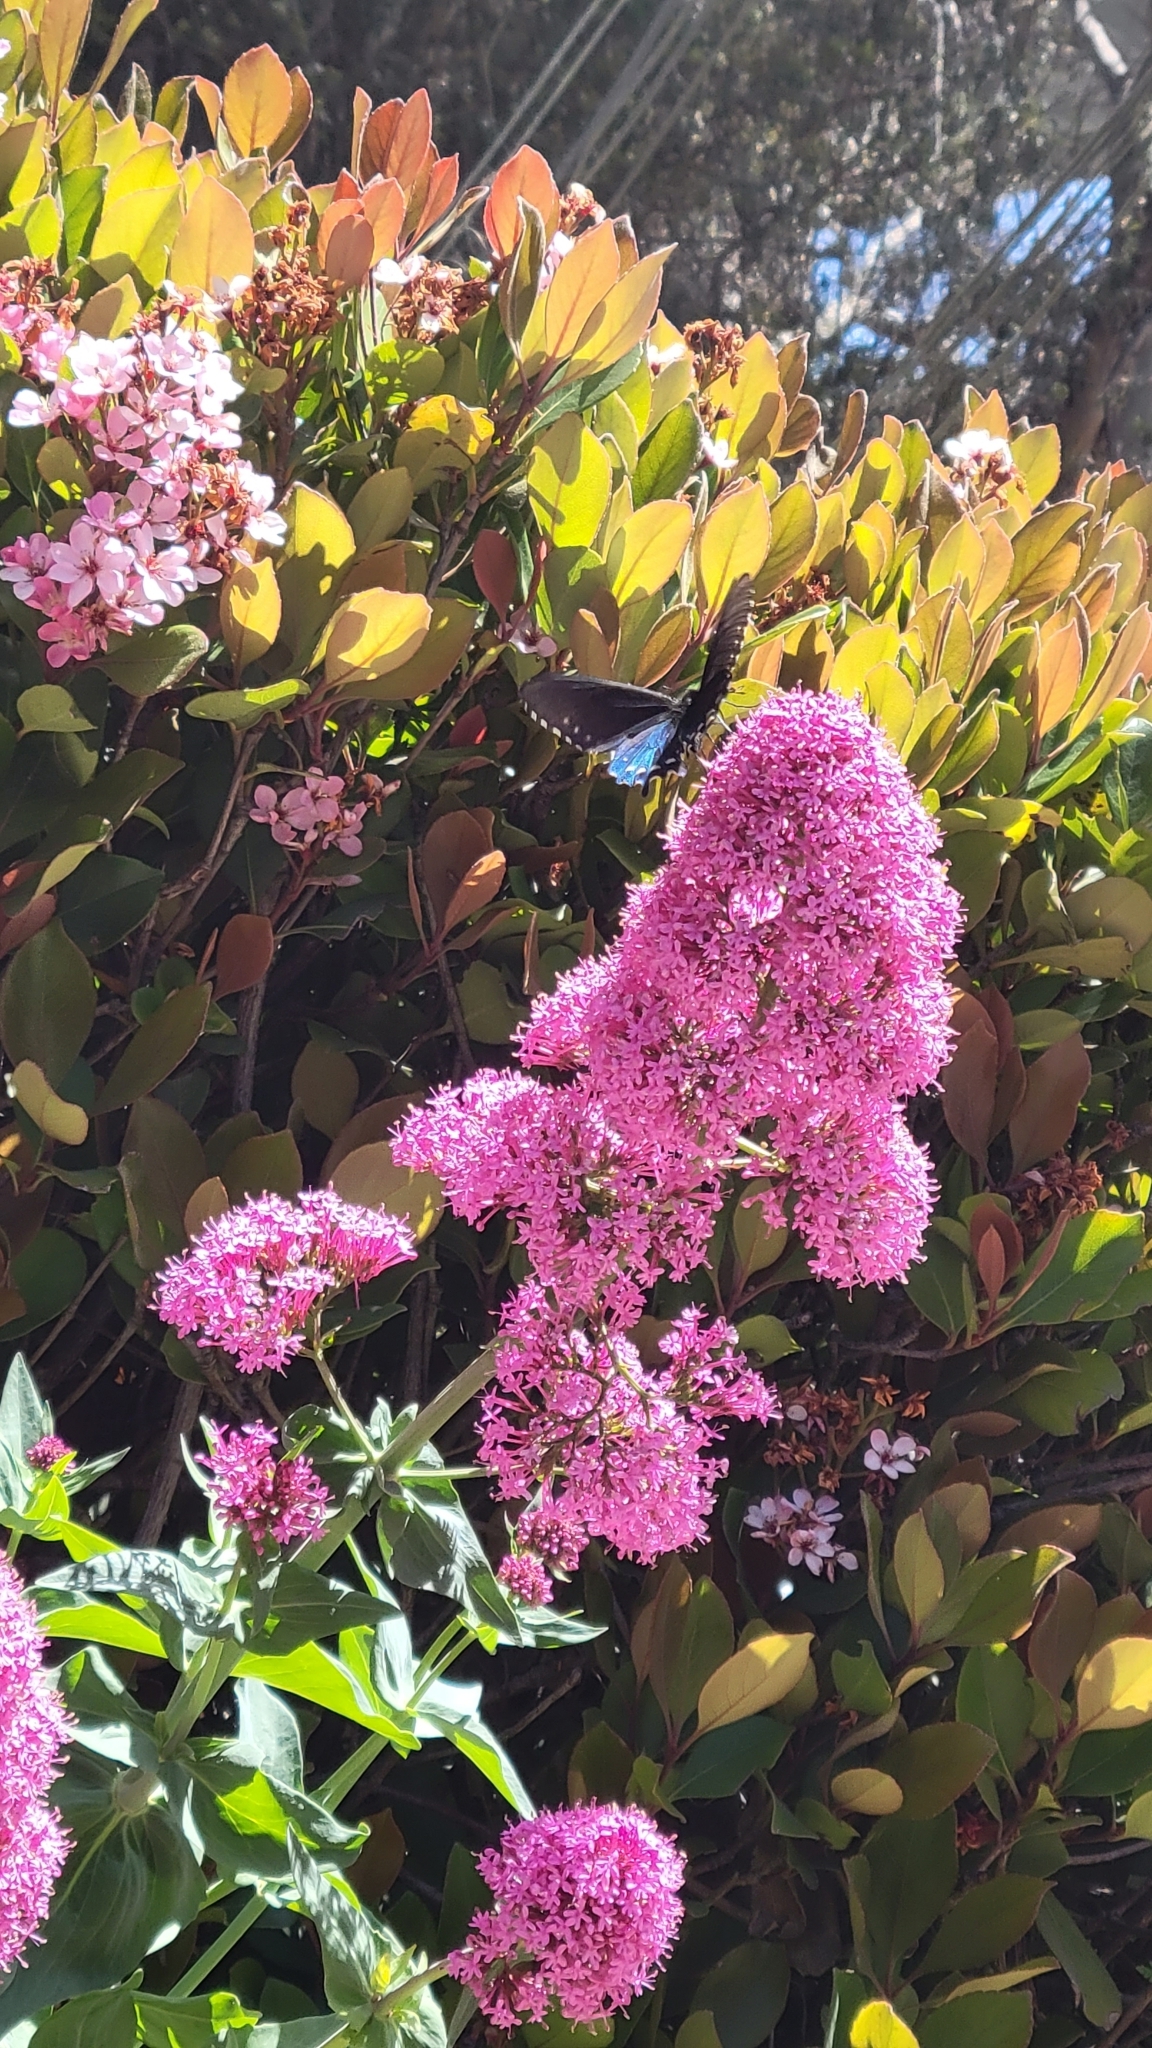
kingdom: Animalia
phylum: Arthropoda
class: Insecta
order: Lepidoptera
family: Papilionidae
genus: Battus
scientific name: Battus philenor
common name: Pipevine swallowtail
